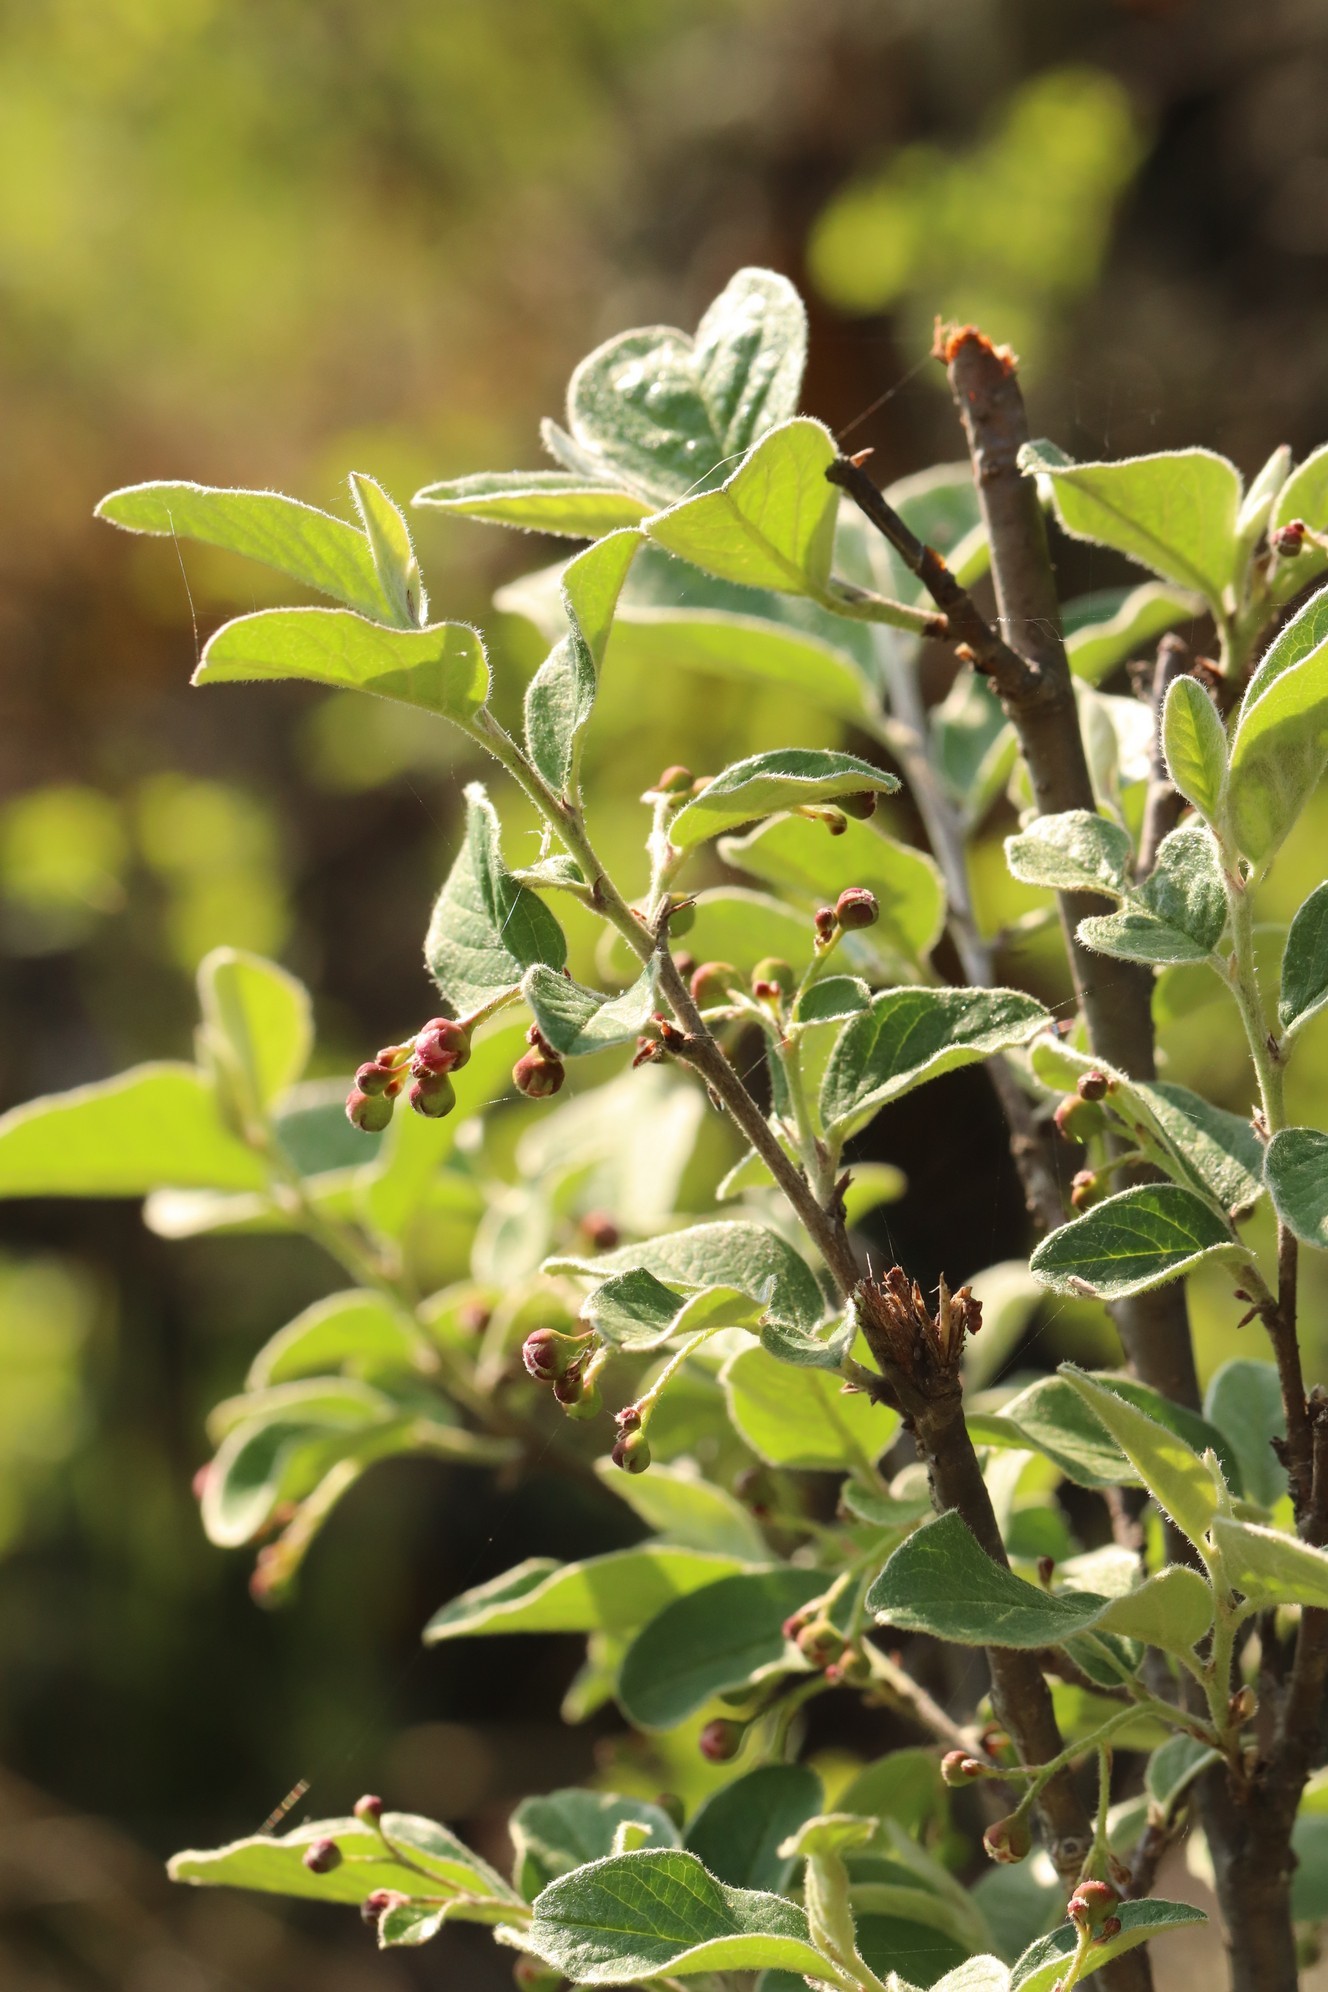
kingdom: Plantae
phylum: Tracheophyta
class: Magnoliopsida
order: Rosales
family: Rosaceae
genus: Cotoneaster
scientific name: Cotoneaster melanocarpus
